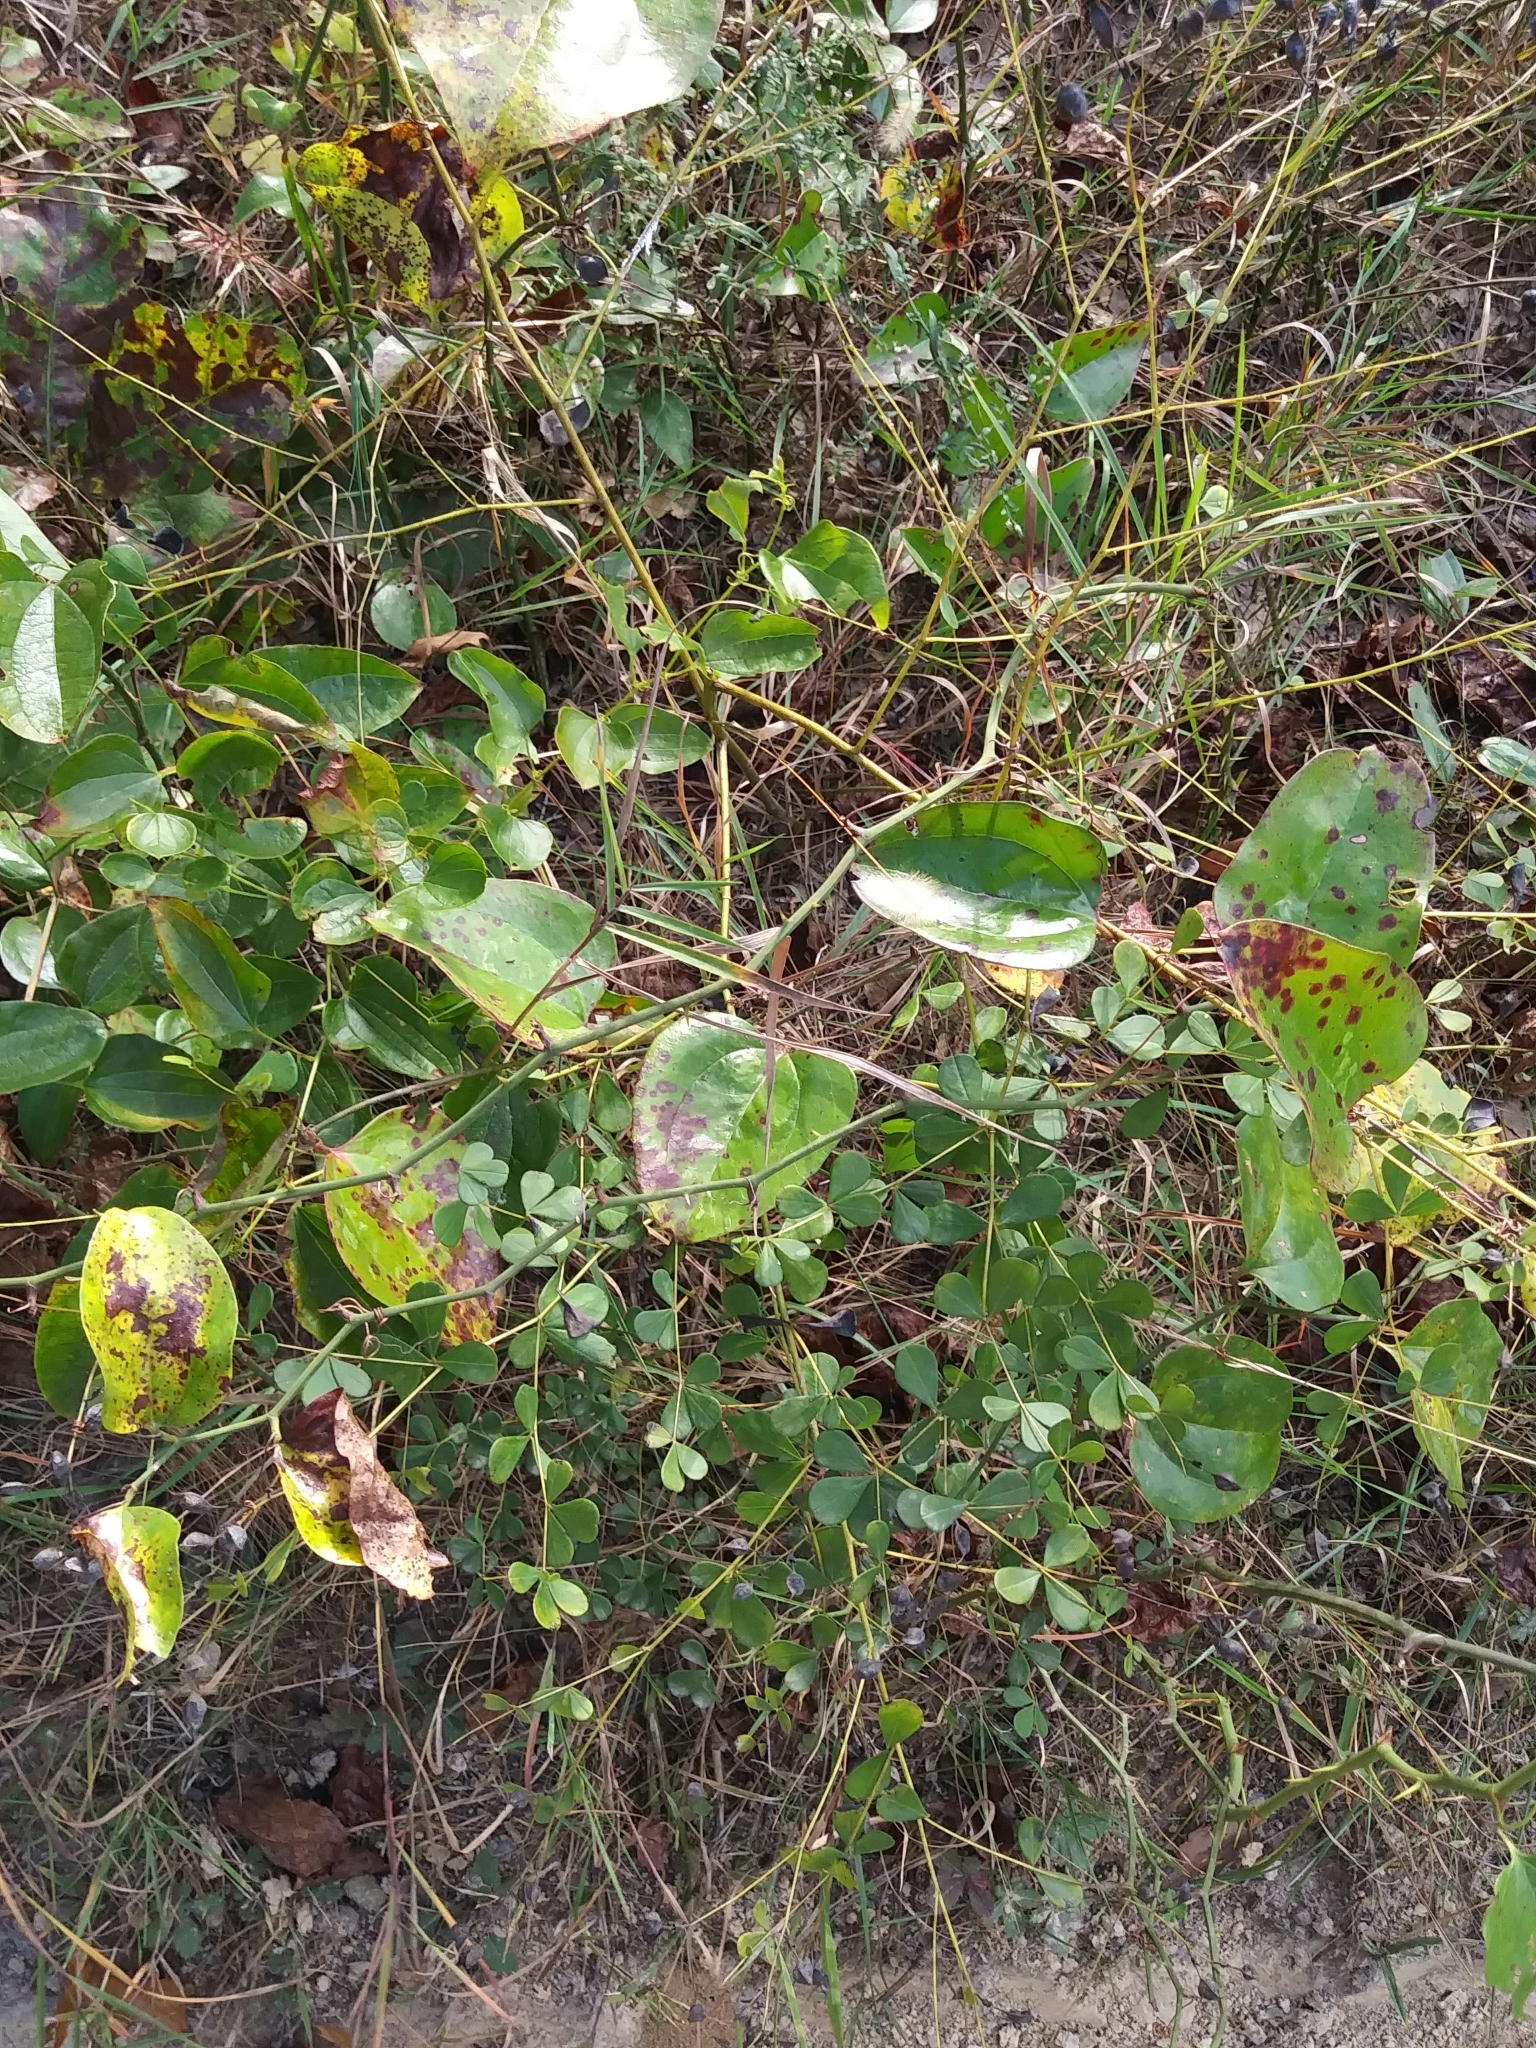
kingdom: Plantae
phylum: Tracheophyta
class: Magnoliopsida
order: Fabales
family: Fabaceae
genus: Baptisia
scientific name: Baptisia tinctoria
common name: Wild indigo
